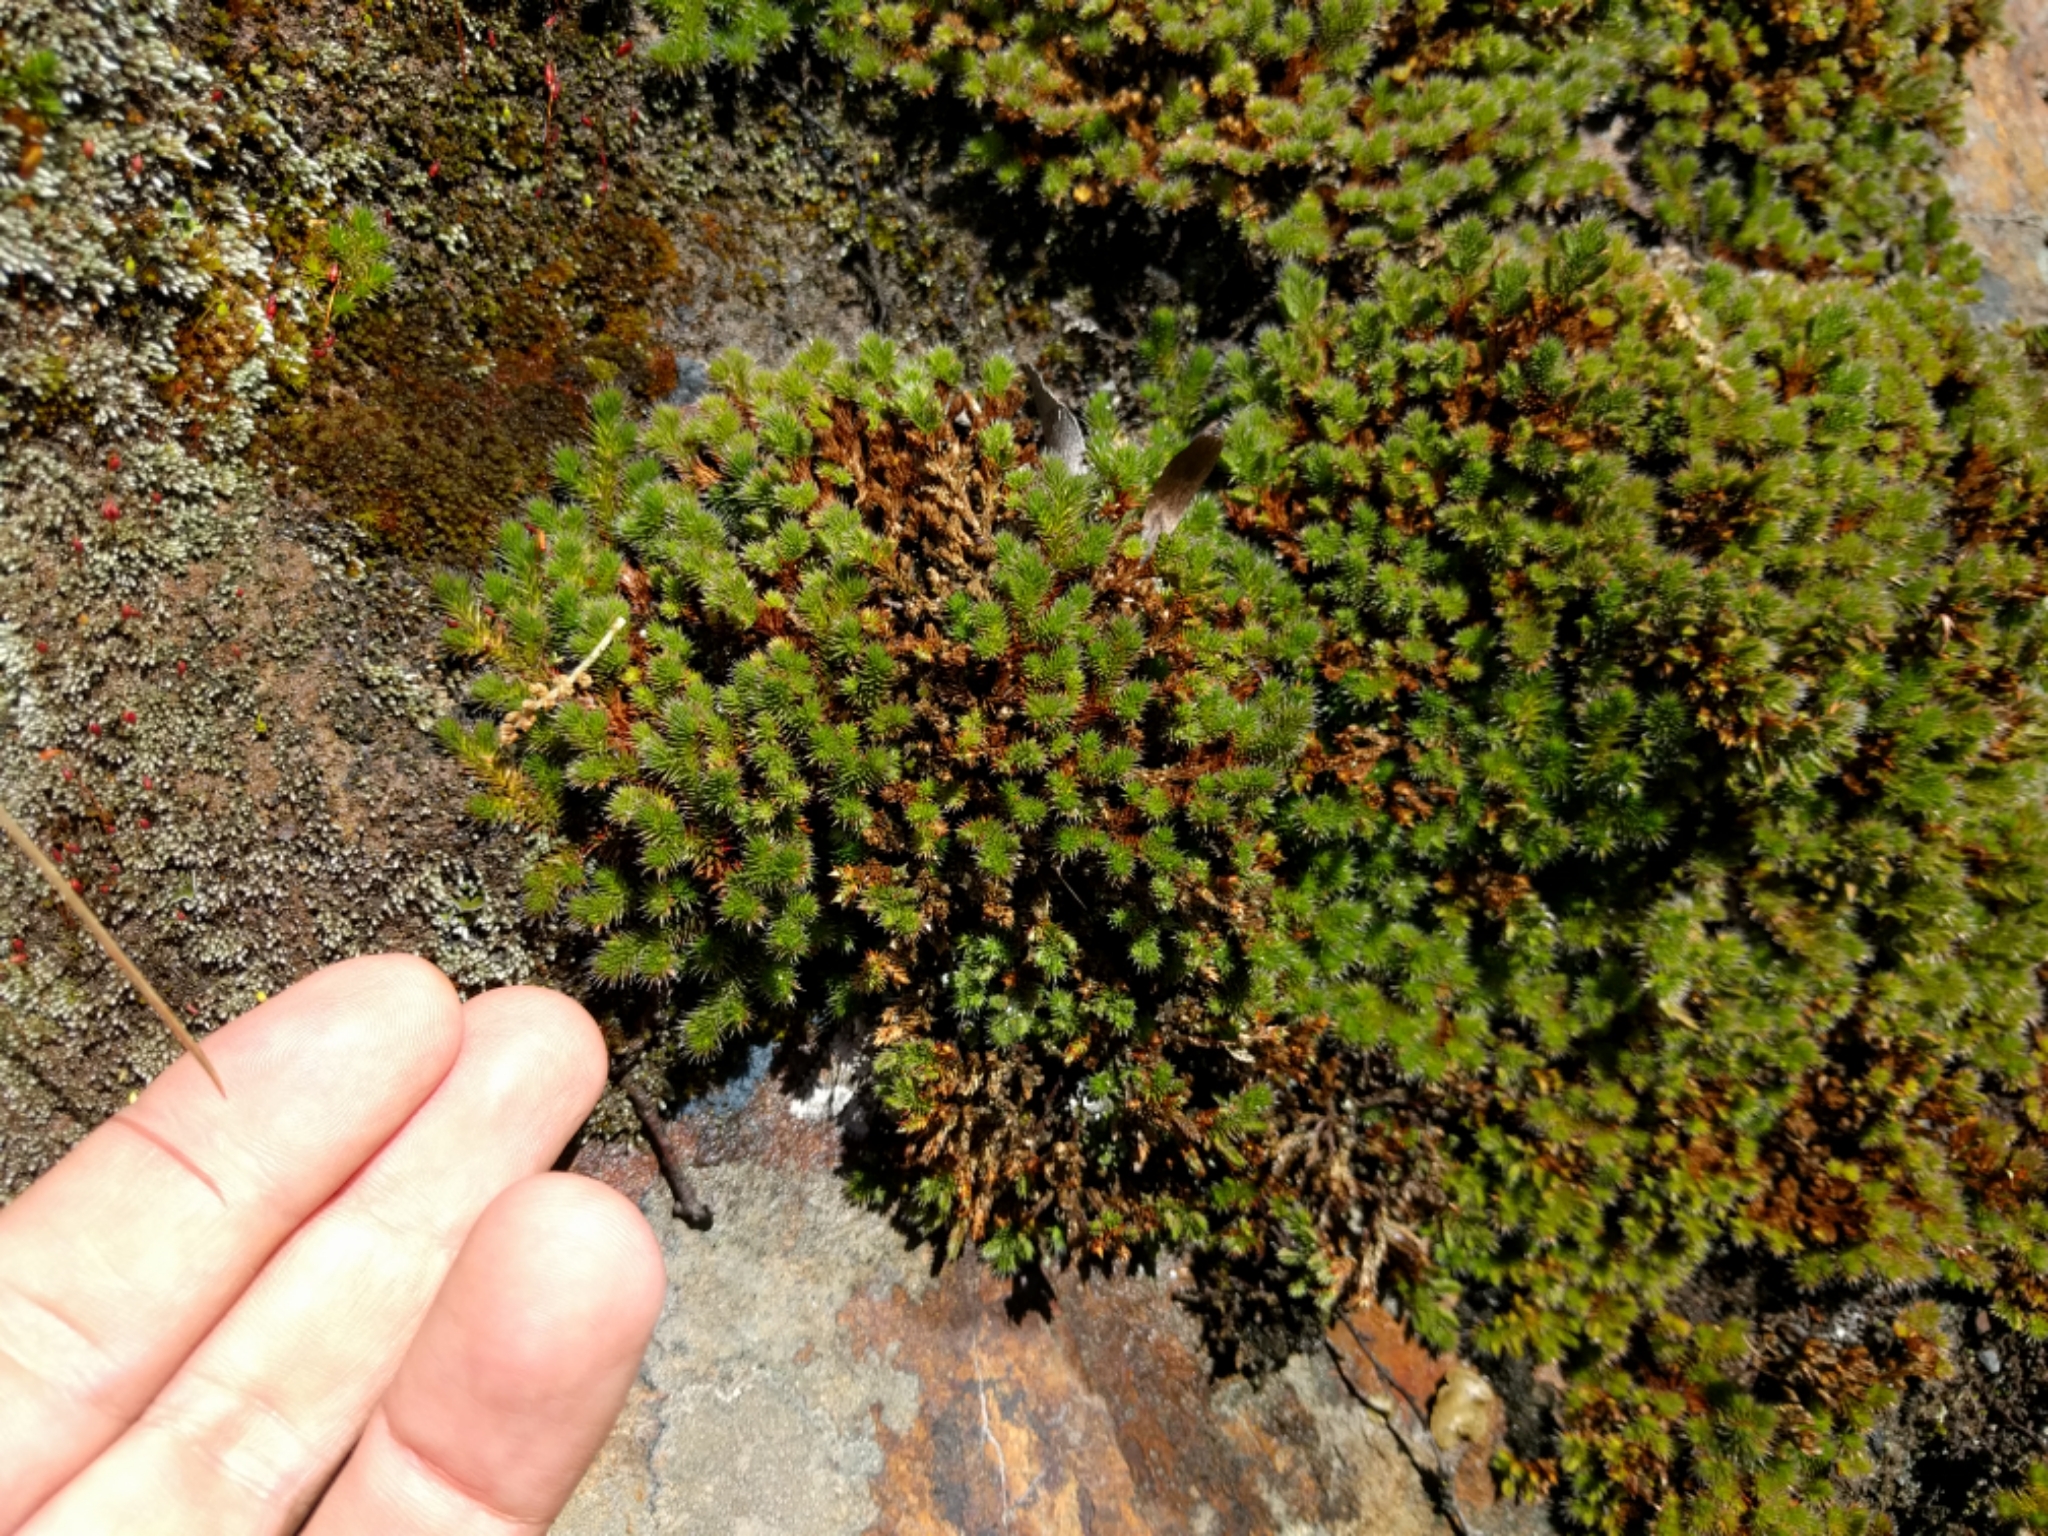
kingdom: Plantae
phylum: Tracheophyta
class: Lycopodiopsida
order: Selaginellales
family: Selaginellaceae
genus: Selaginella
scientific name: Selaginella hansenii
